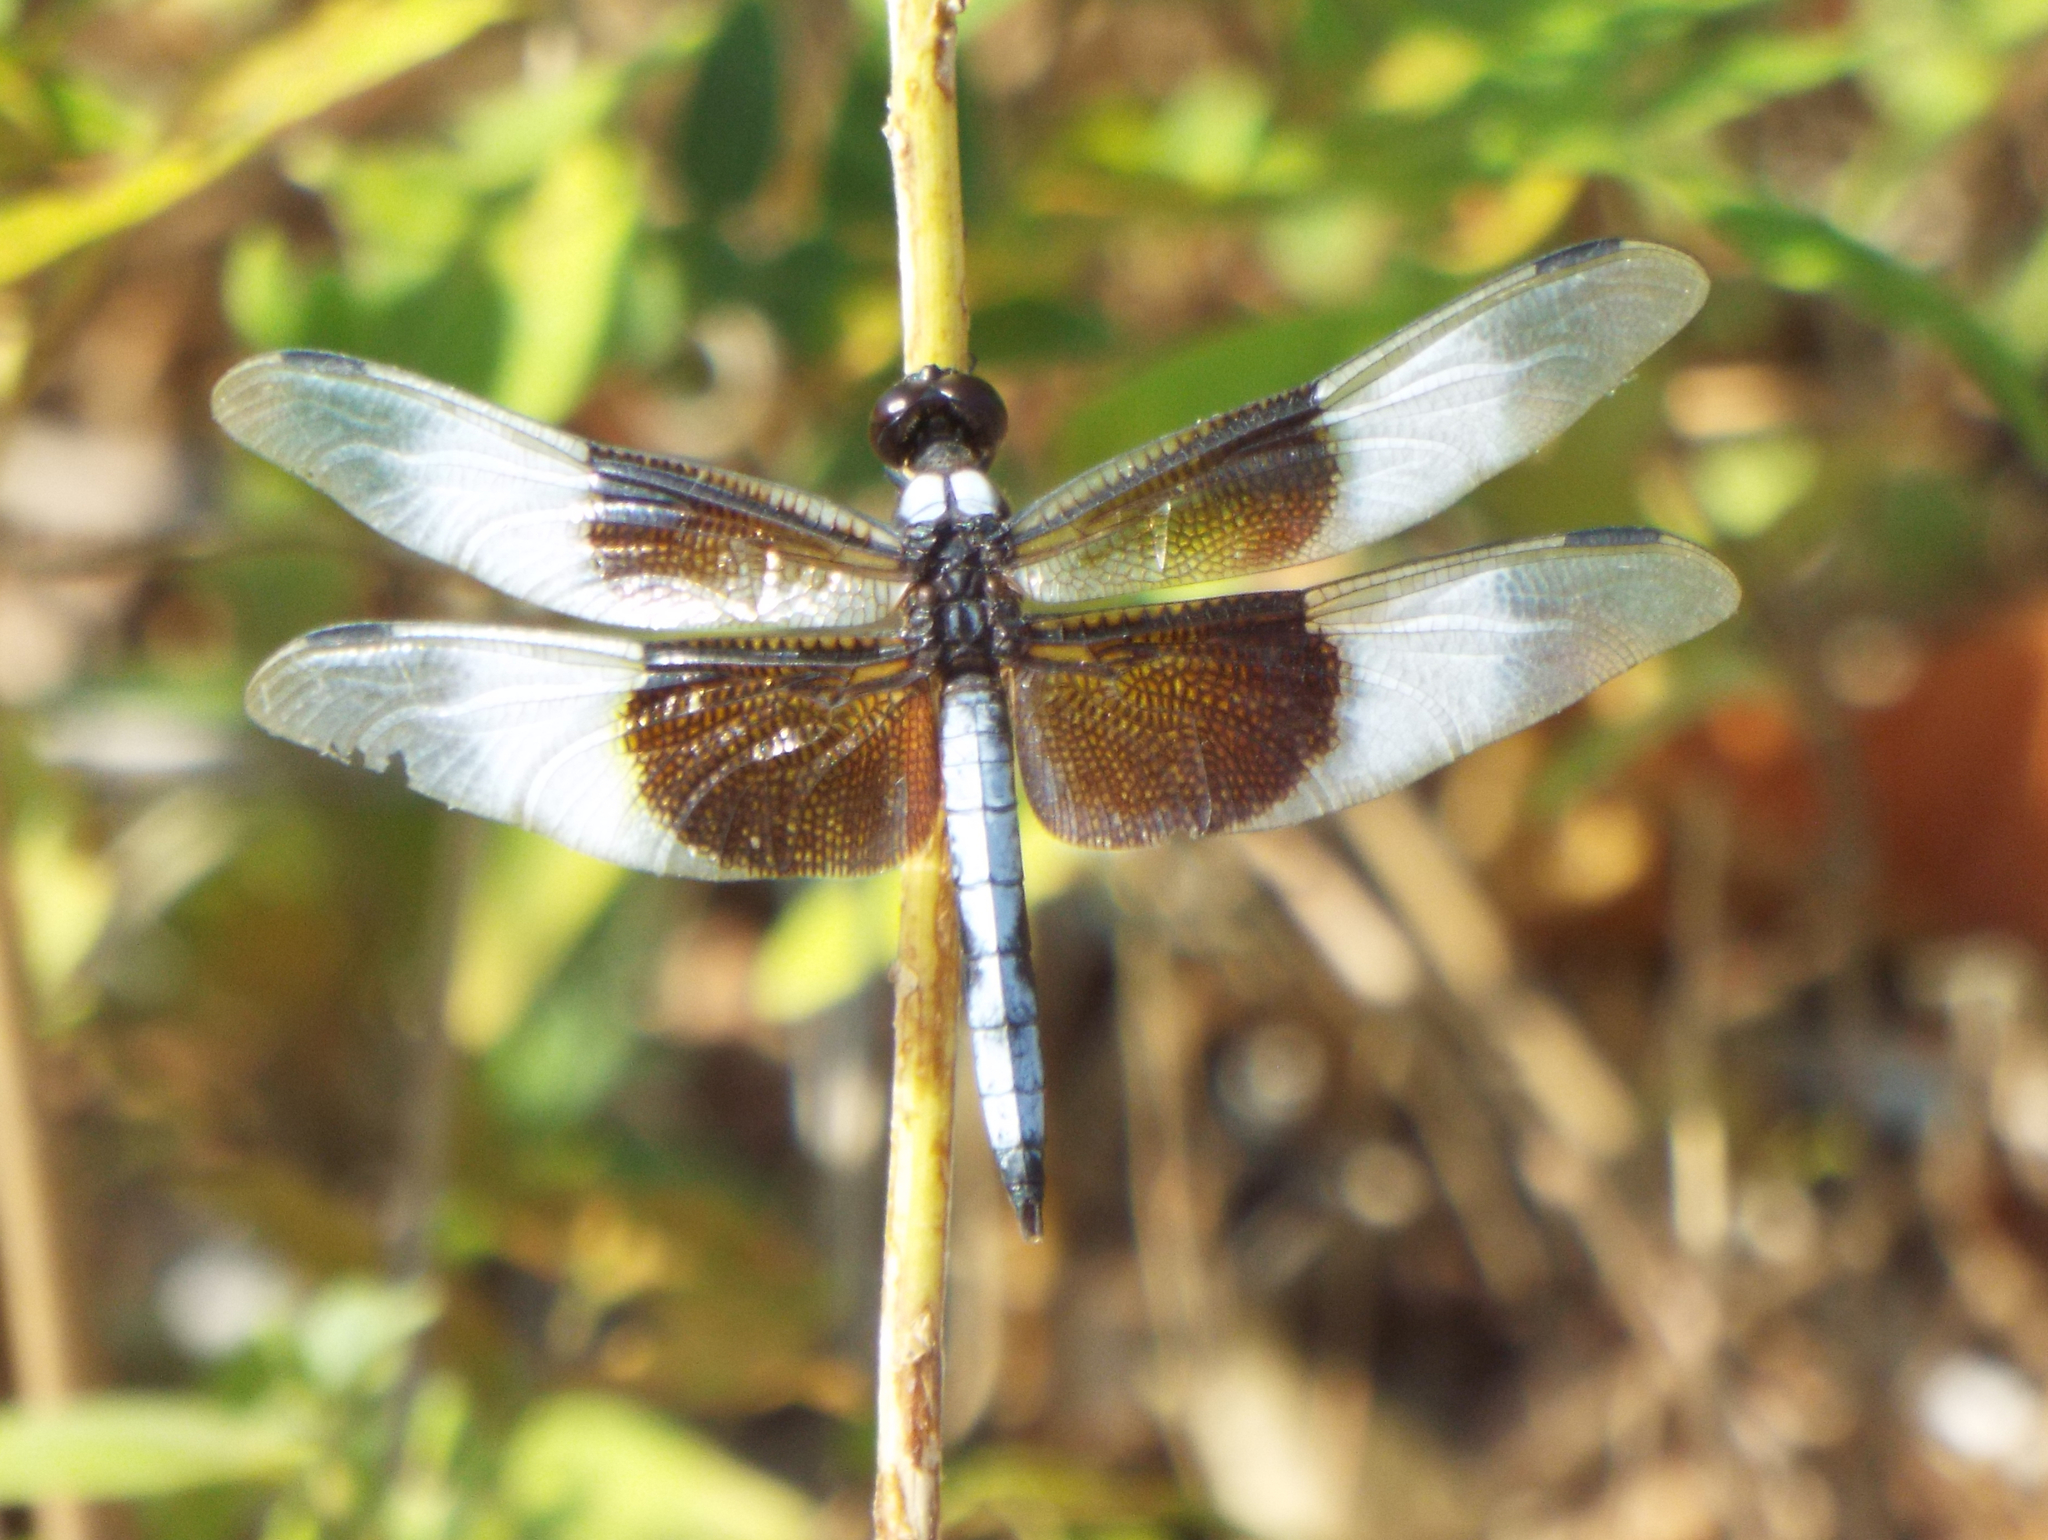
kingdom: Animalia
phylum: Arthropoda
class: Insecta
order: Odonata
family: Libellulidae
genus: Libellula
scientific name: Libellula luctuosa
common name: Widow skimmer
